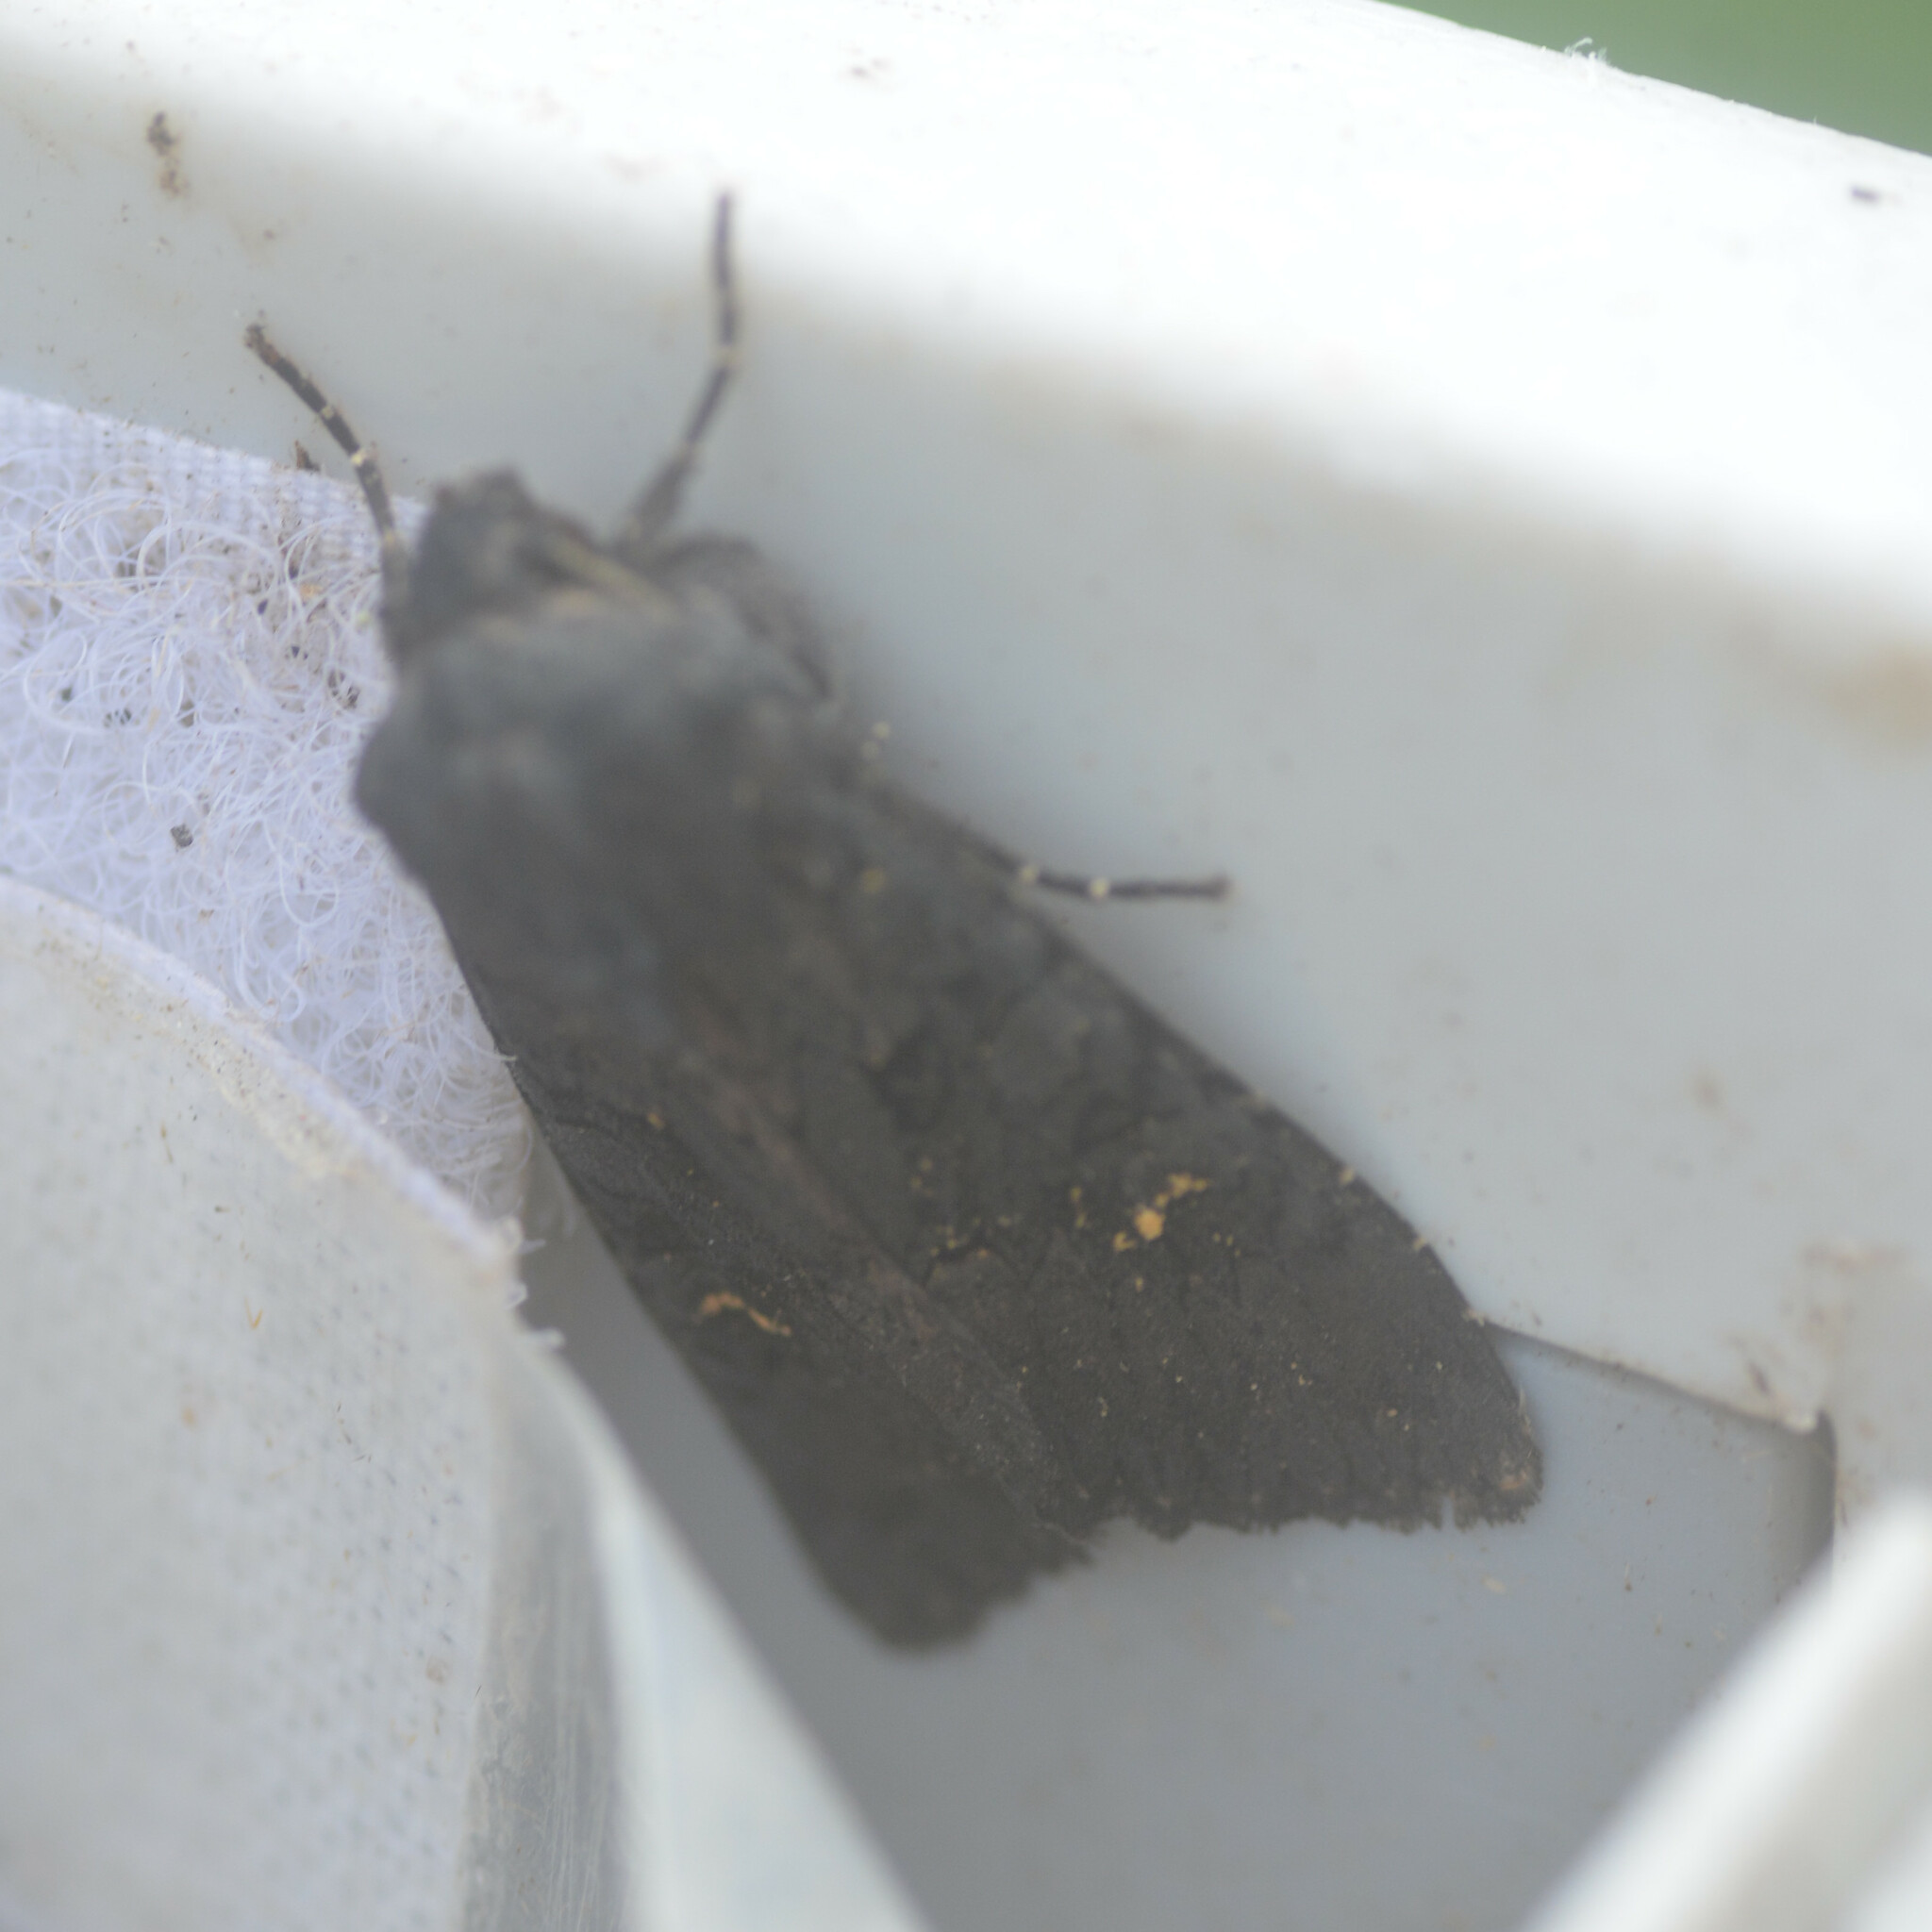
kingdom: Animalia
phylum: Arthropoda
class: Insecta
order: Lepidoptera
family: Noctuidae
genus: Aporophyla
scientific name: Aporophyla nigra
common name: Black rustic
